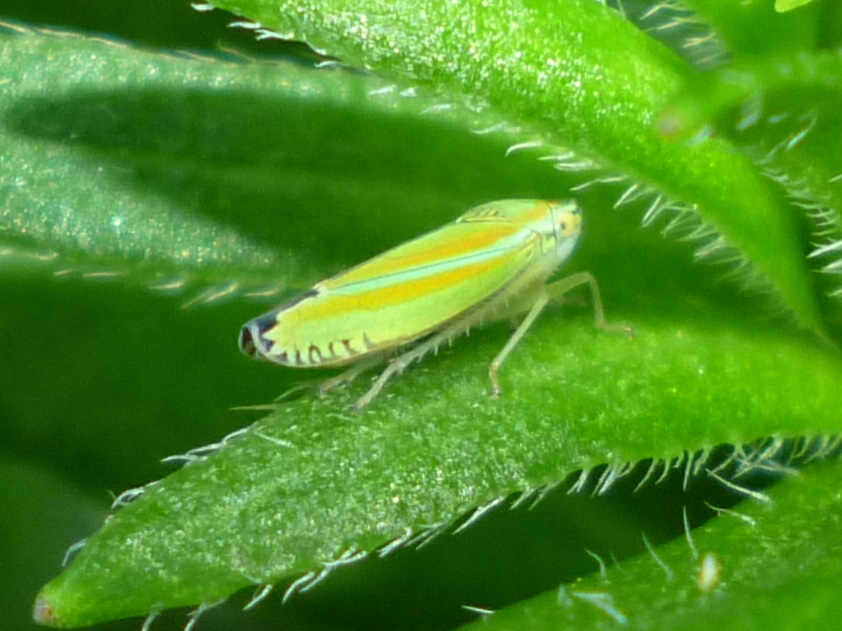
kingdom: Animalia
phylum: Arthropoda
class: Insecta
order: Hemiptera
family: Cicadellidae
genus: Graphocephala
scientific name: Graphocephala versuta
